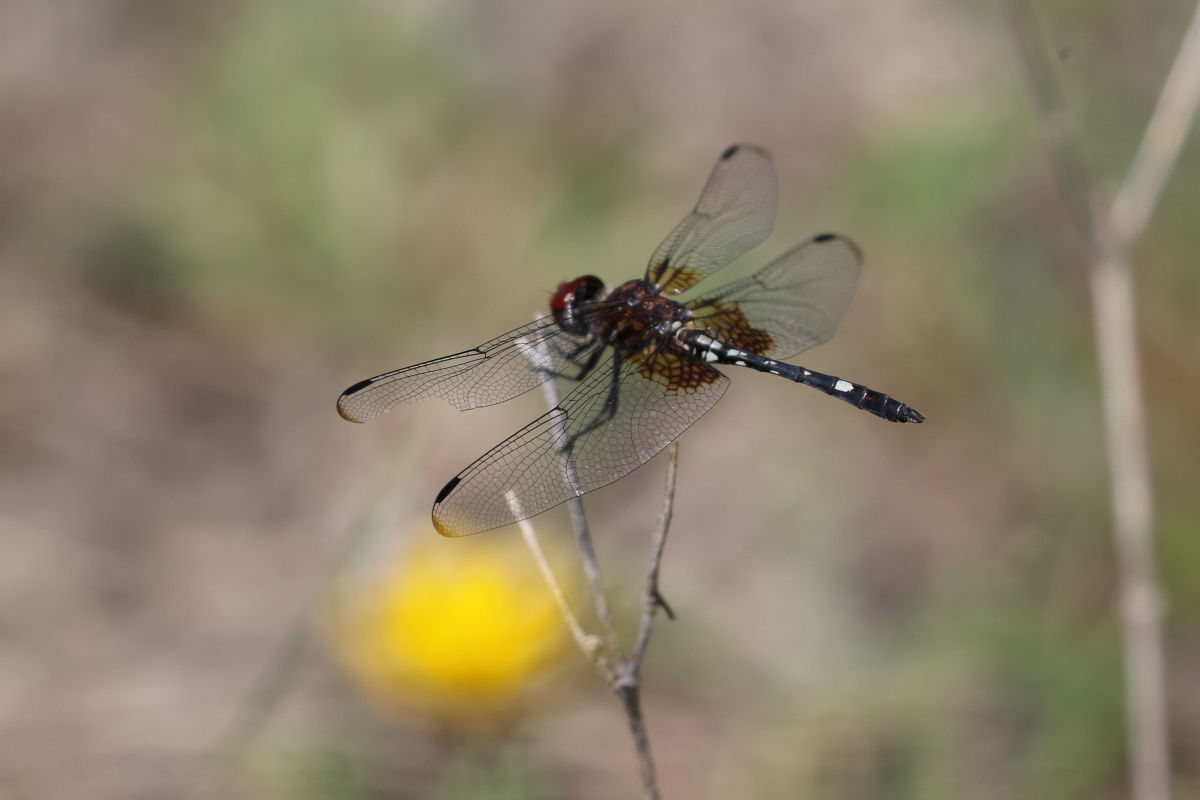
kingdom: Animalia
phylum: Arthropoda
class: Insecta
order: Odonata
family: Libellulidae
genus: Dythemis
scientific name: Dythemis fugax
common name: Checkered setwing
